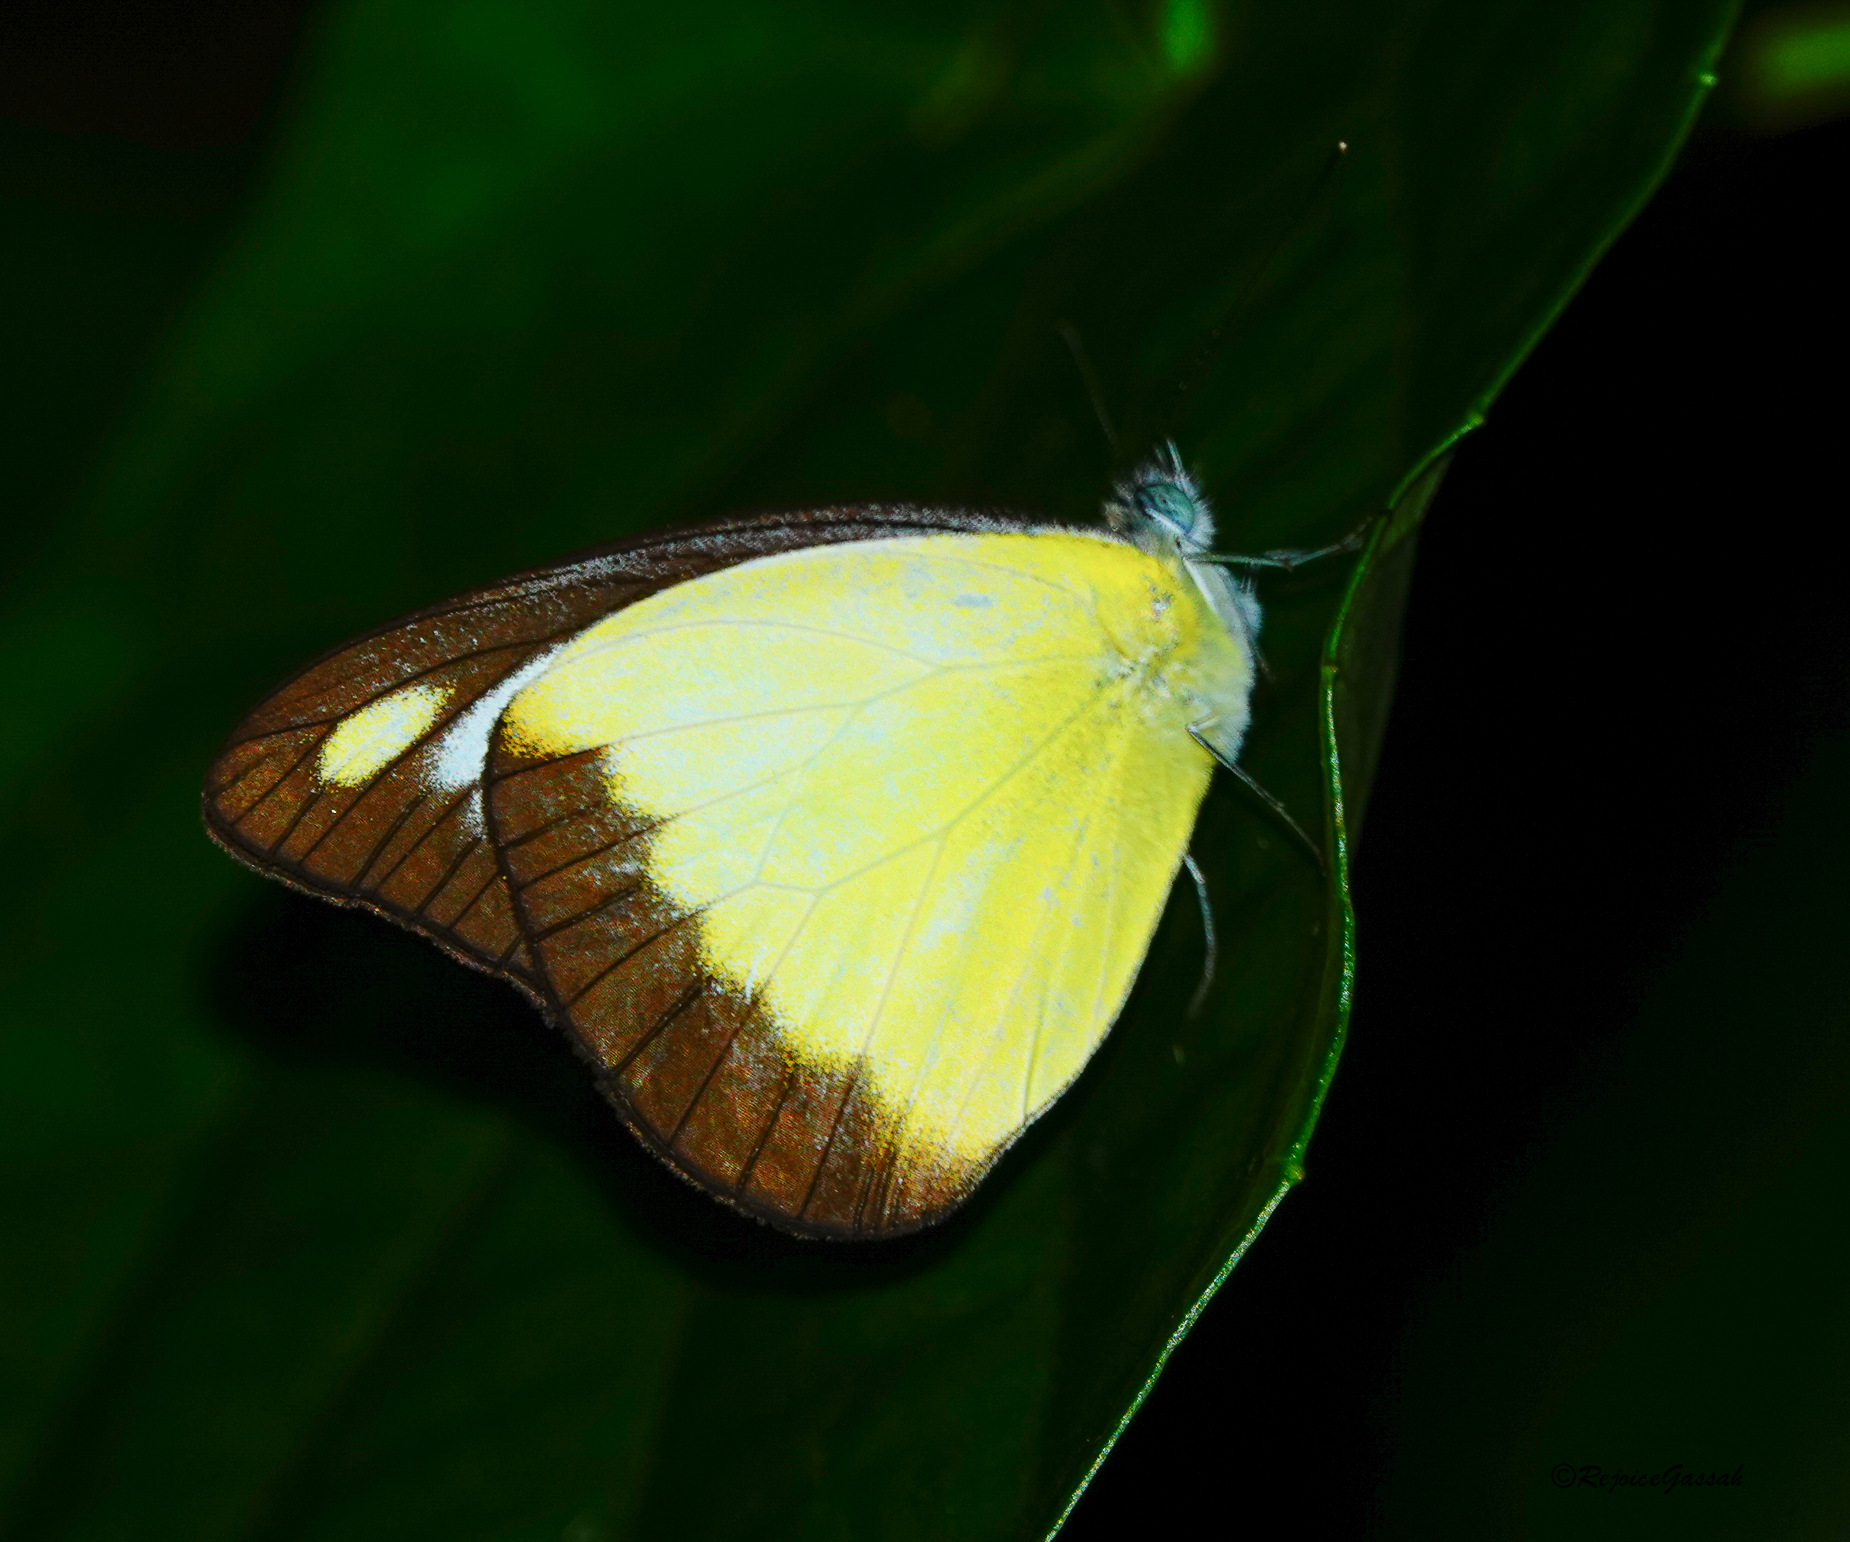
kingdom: Animalia
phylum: Arthropoda
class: Insecta
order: Lepidoptera
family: Pieridae
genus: Appias
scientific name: Appias lyncida
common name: Chocolate albatross
